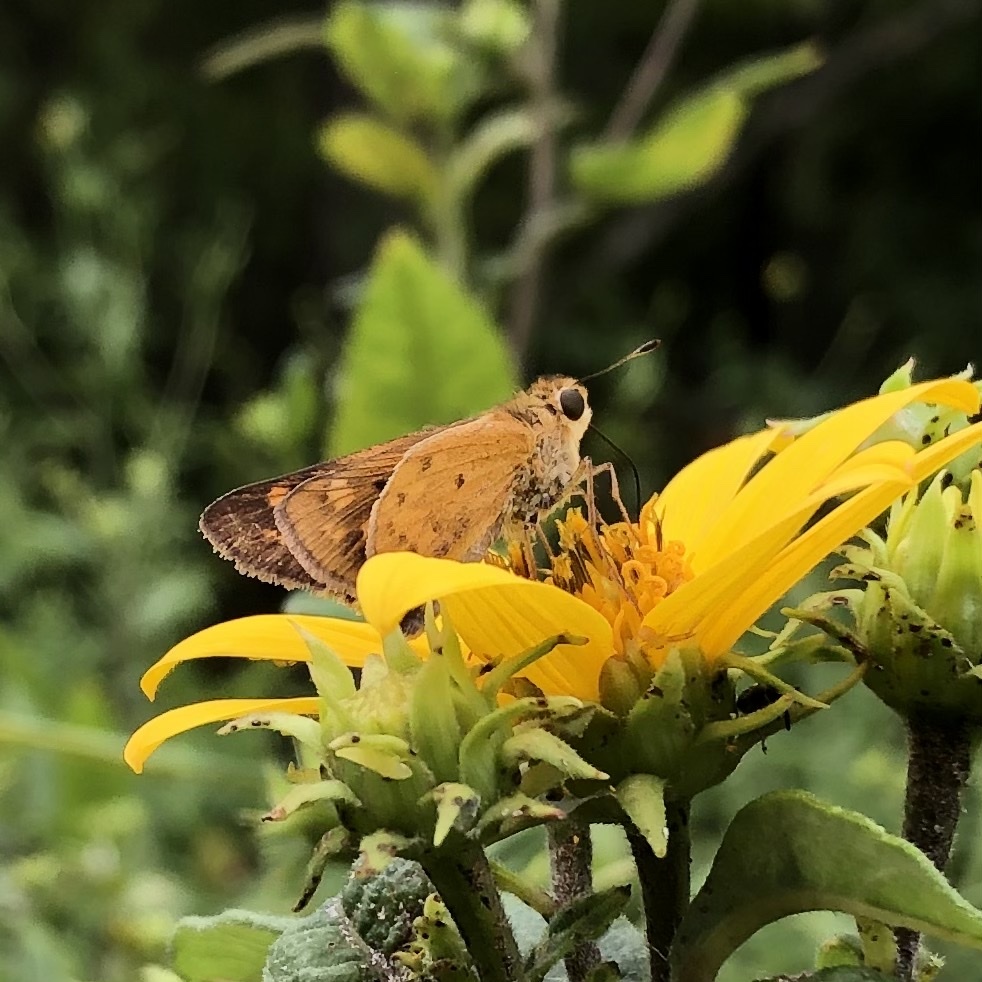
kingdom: Animalia
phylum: Arthropoda
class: Insecta
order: Lepidoptera
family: Hesperiidae
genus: Hylephila
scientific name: Hylephila phyleus
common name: Fiery skipper
